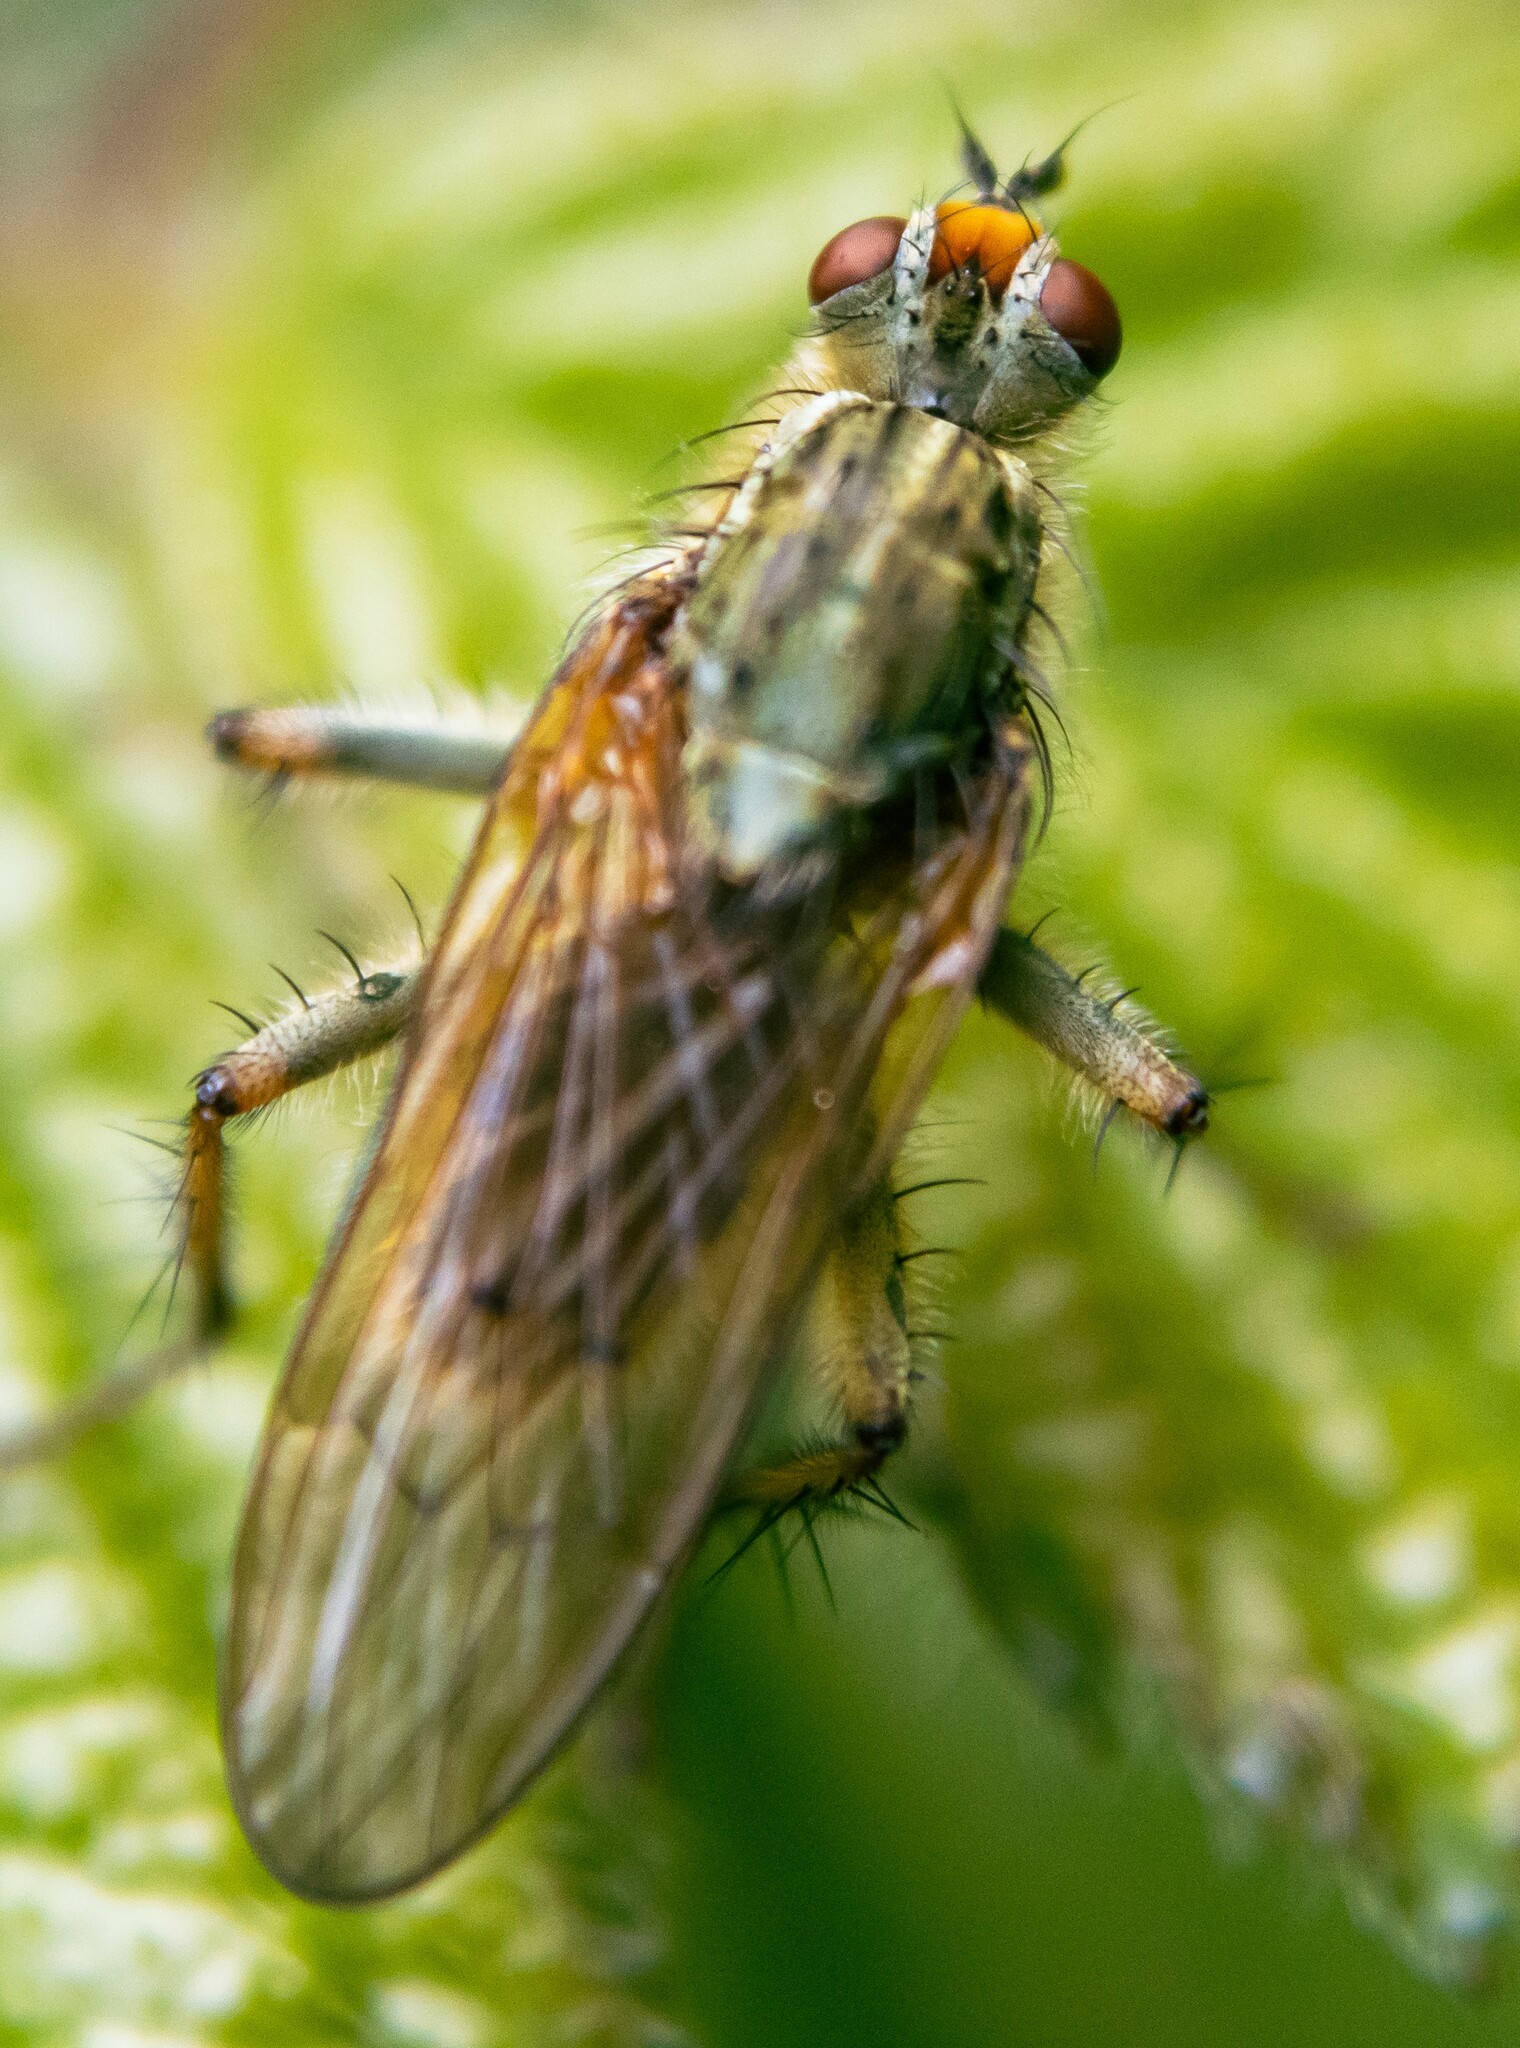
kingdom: Animalia
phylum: Arthropoda
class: Insecta
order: Diptera
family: Scathophagidae
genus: Scathophaga
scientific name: Scathophaga stercoraria
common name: Yellow dung fly
